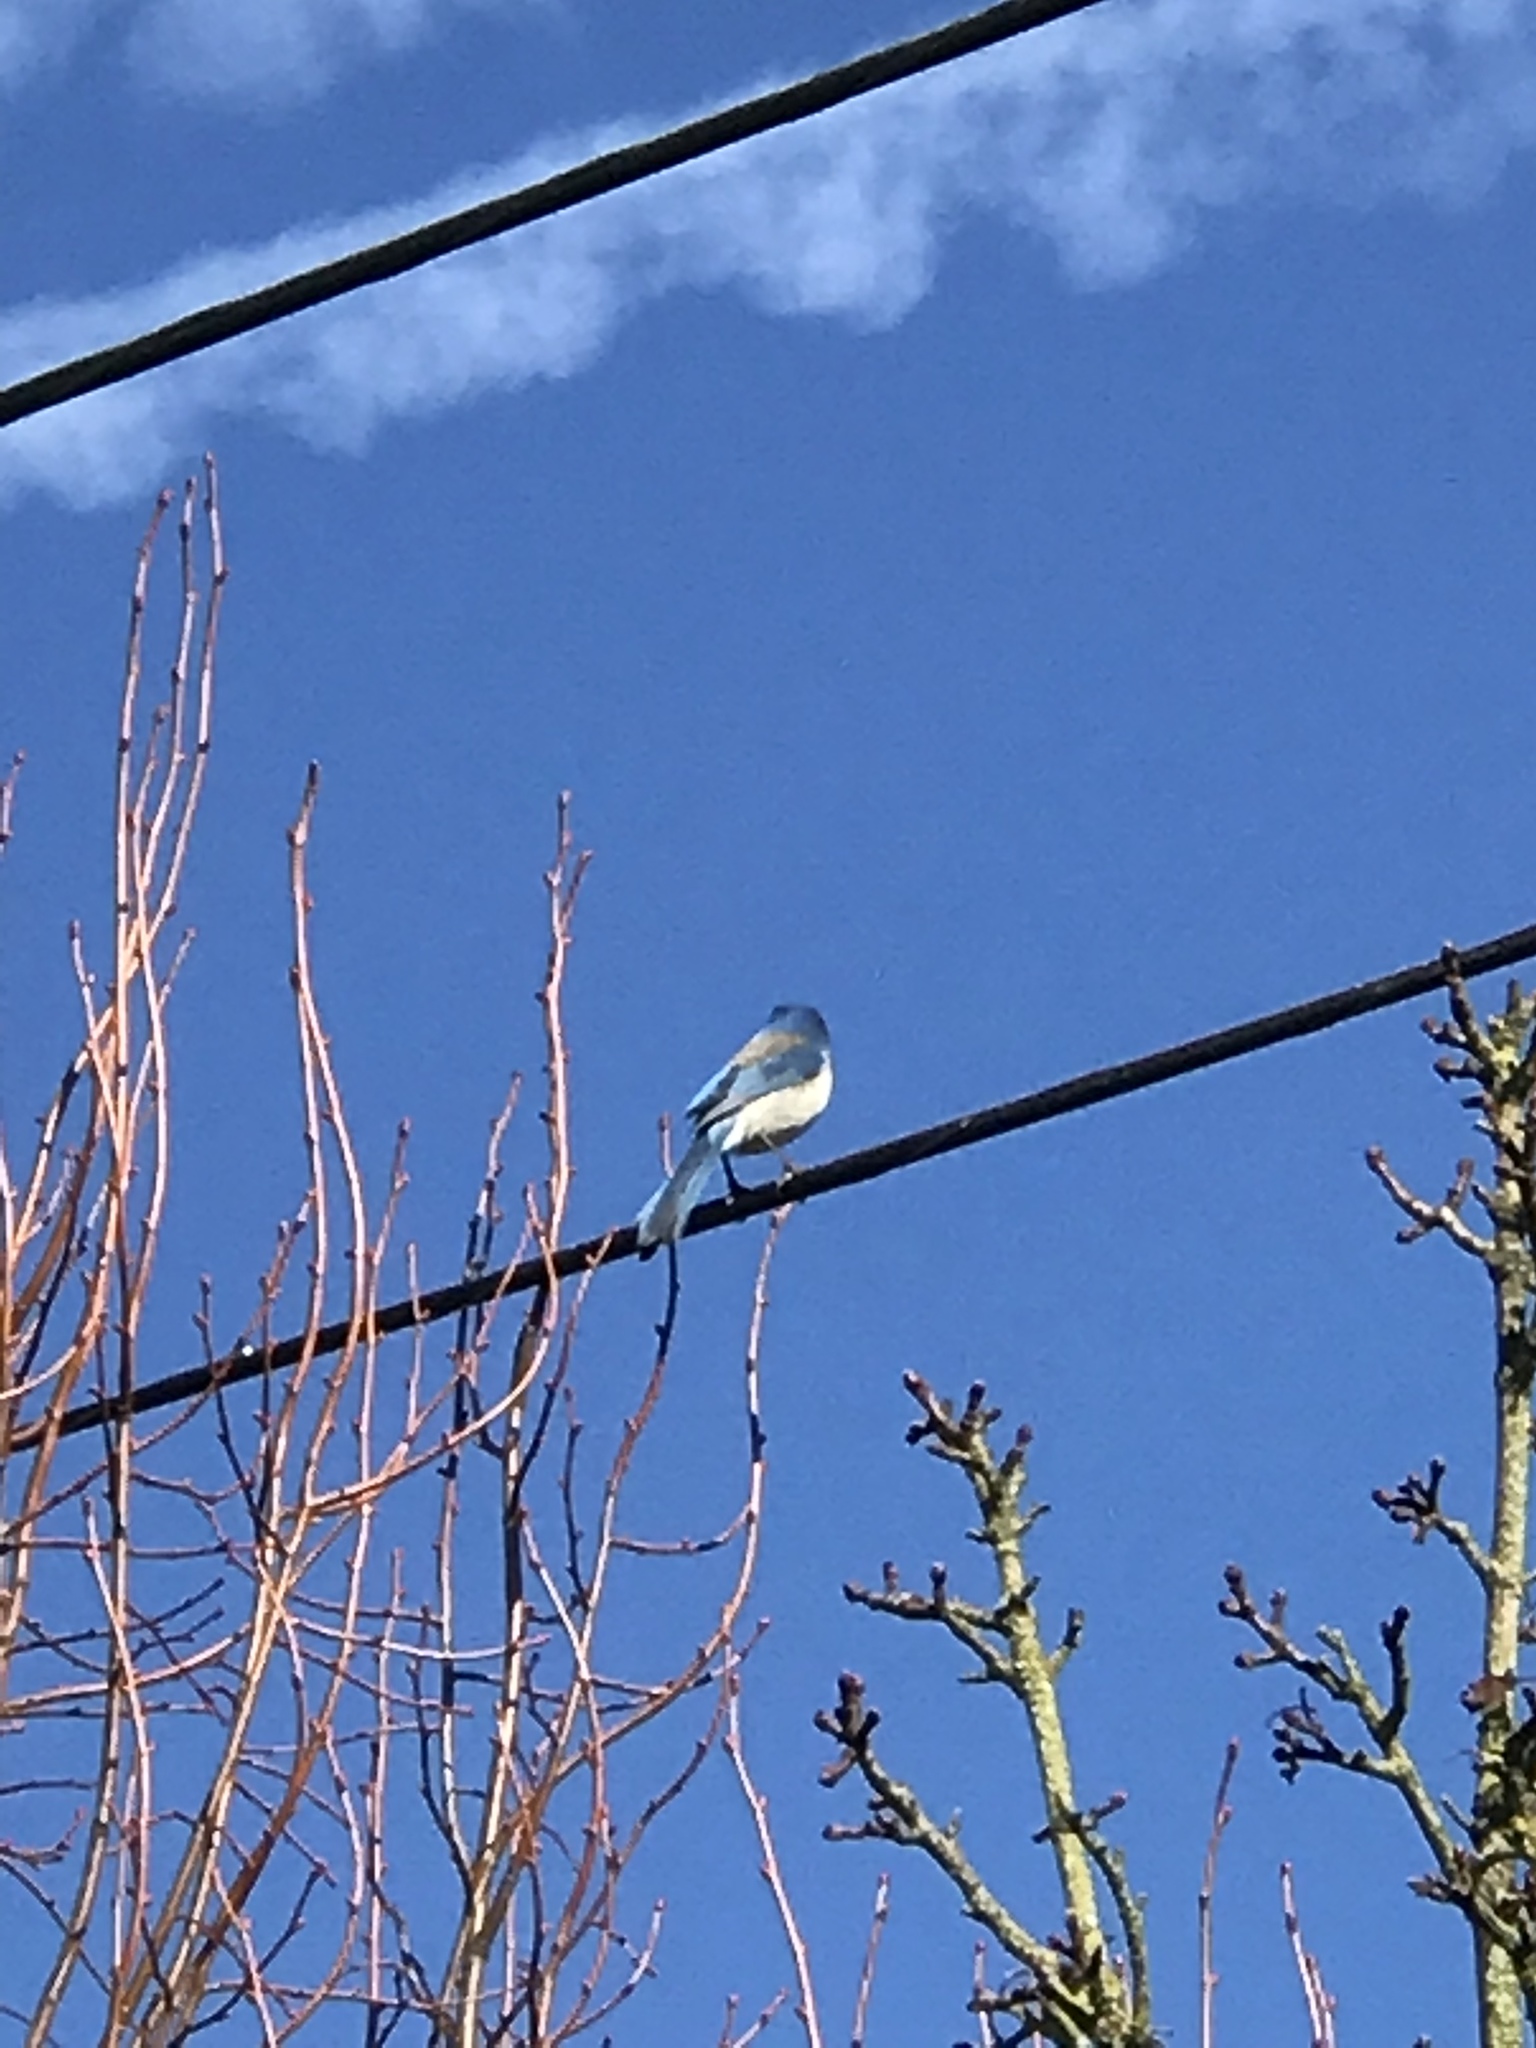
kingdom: Animalia
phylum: Chordata
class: Aves
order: Passeriformes
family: Corvidae
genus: Aphelocoma
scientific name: Aphelocoma californica
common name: California scrub-jay
